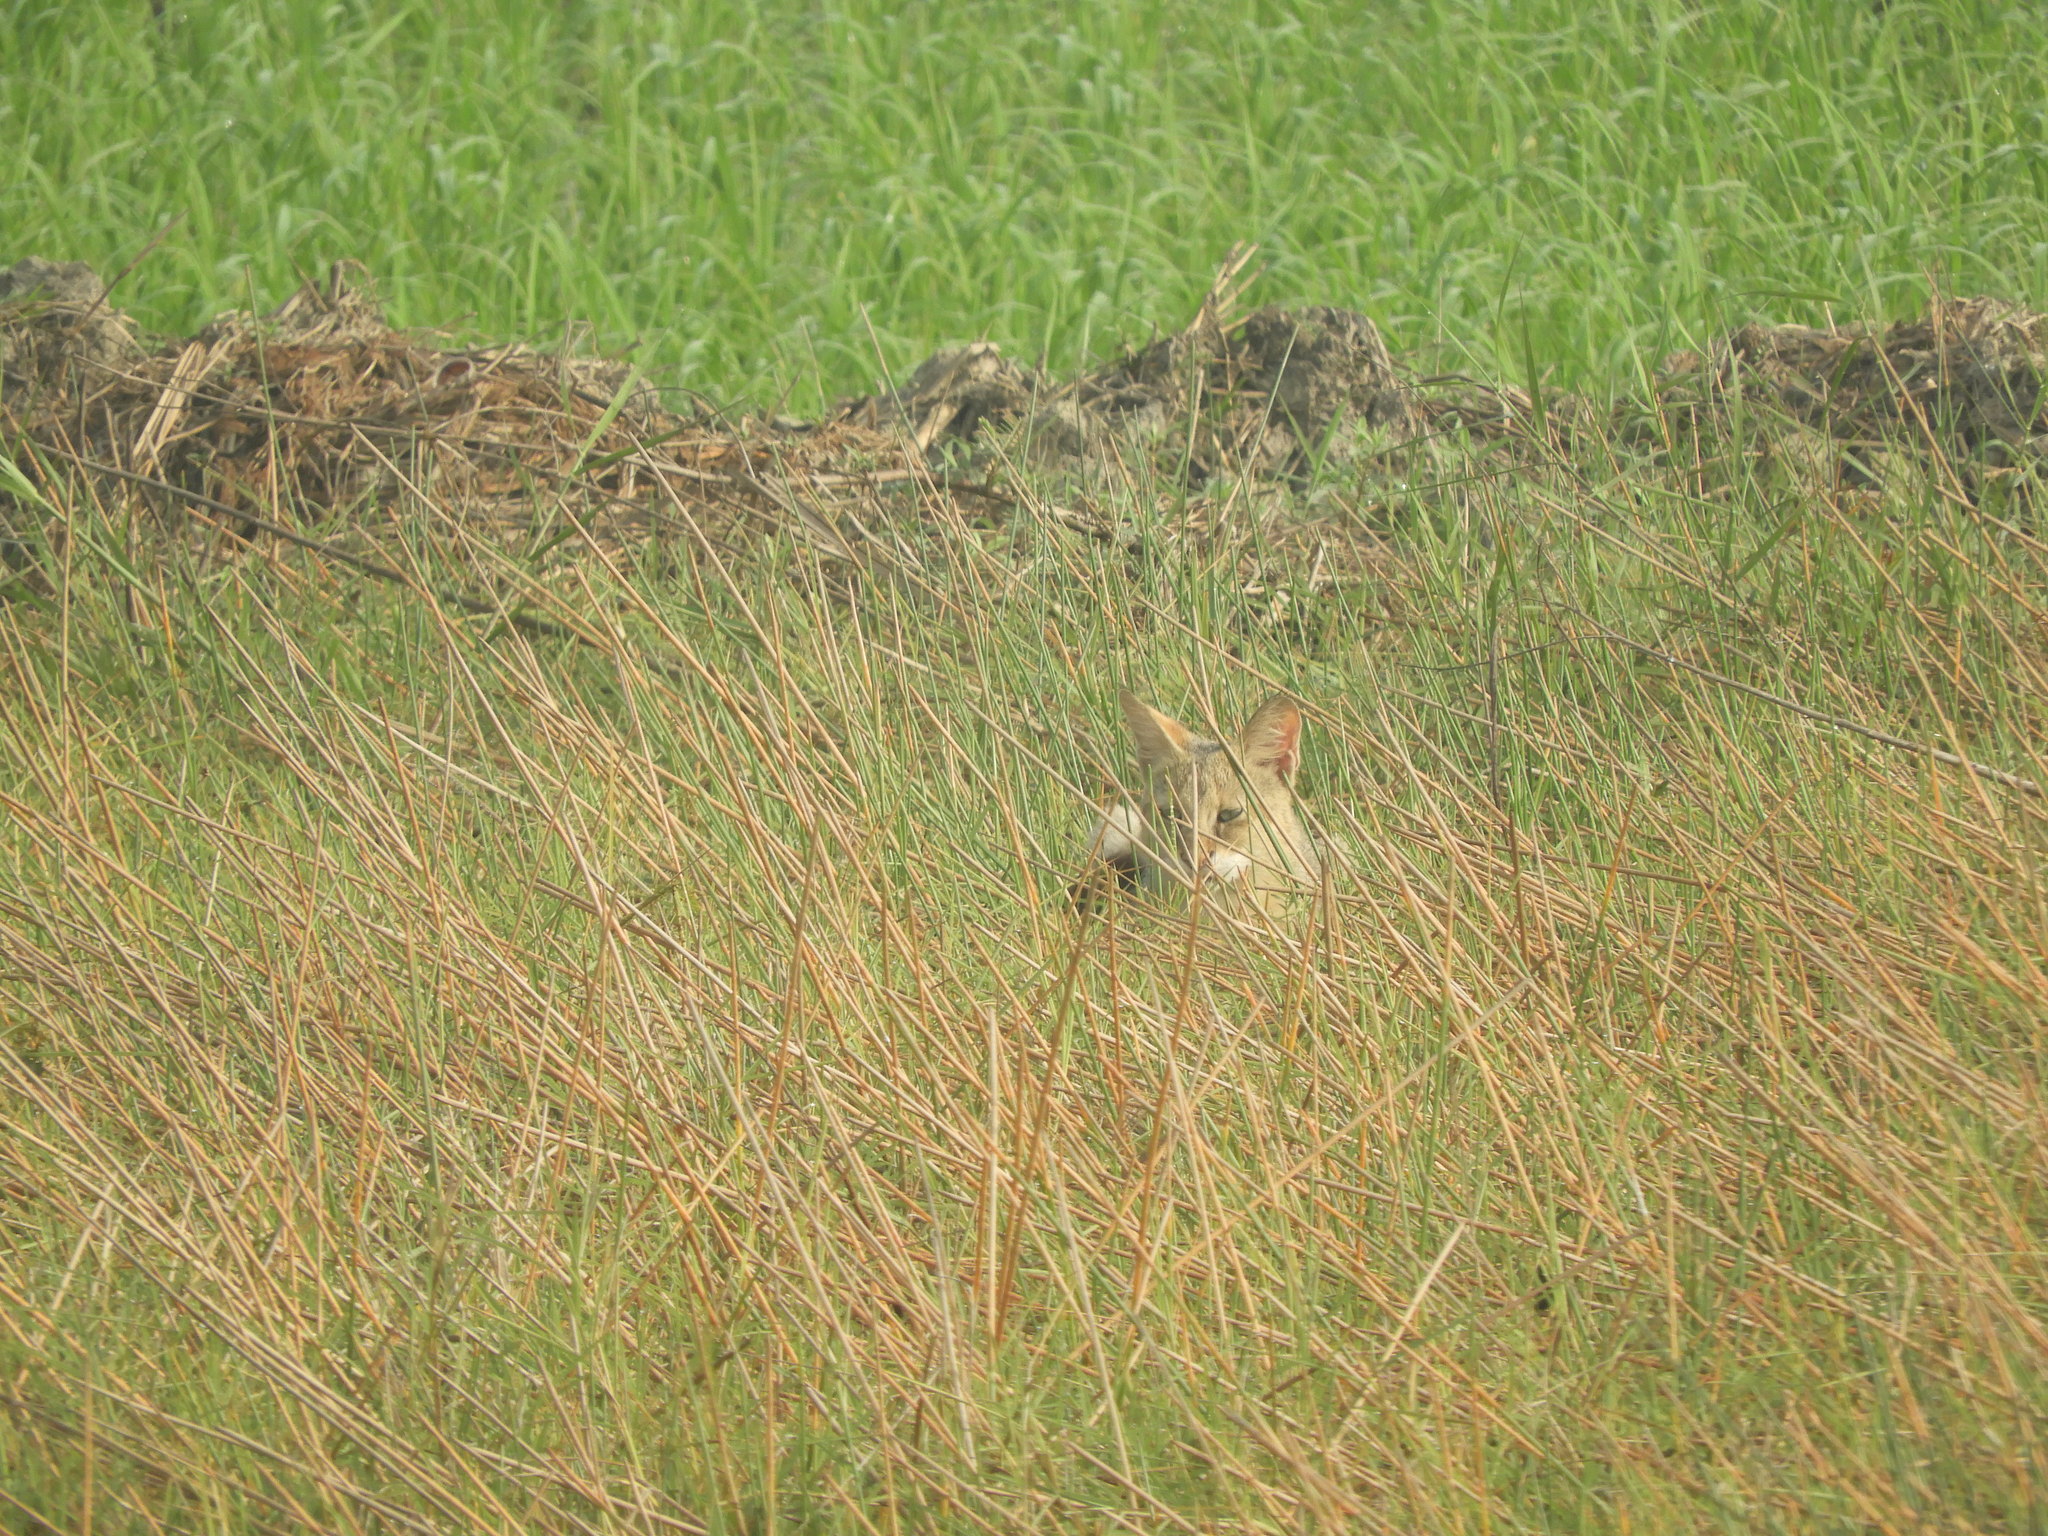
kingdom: Animalia
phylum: Chordata
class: Mammalia
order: Carnivora
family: Felidae
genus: Felis
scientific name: Felis chaus
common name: Jungle cat
